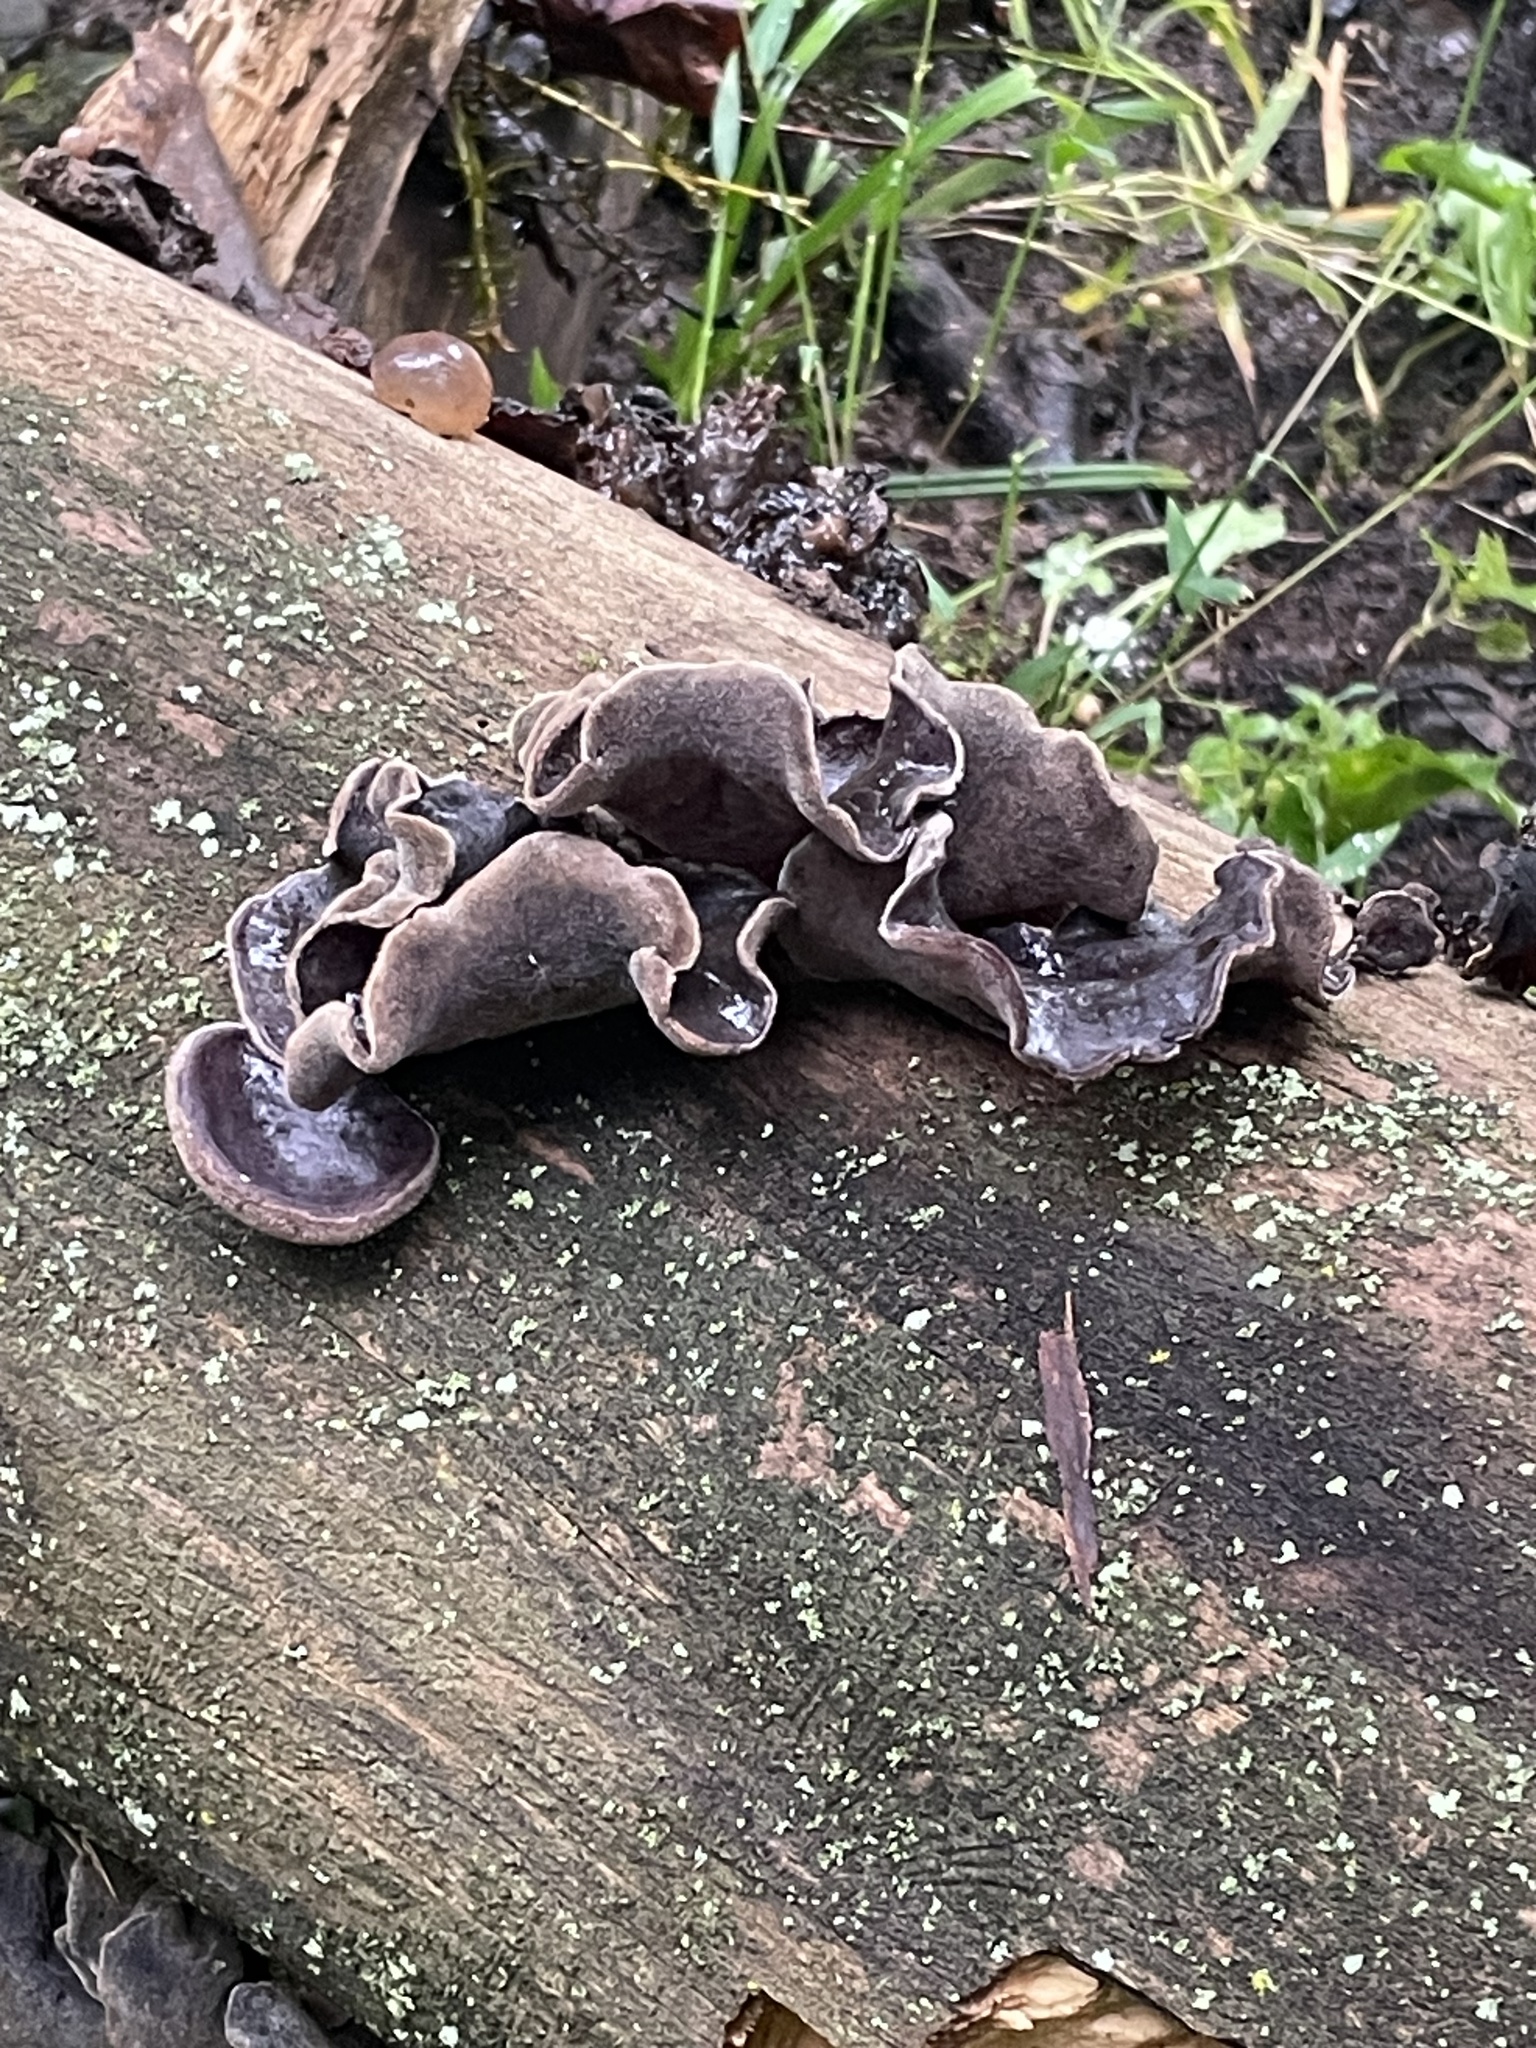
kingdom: Fungi
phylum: Basidiomycota
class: Agaricomycetes
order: Auriculariales
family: Auriculariaceae
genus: Auricularia
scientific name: Auricularia nigricans
